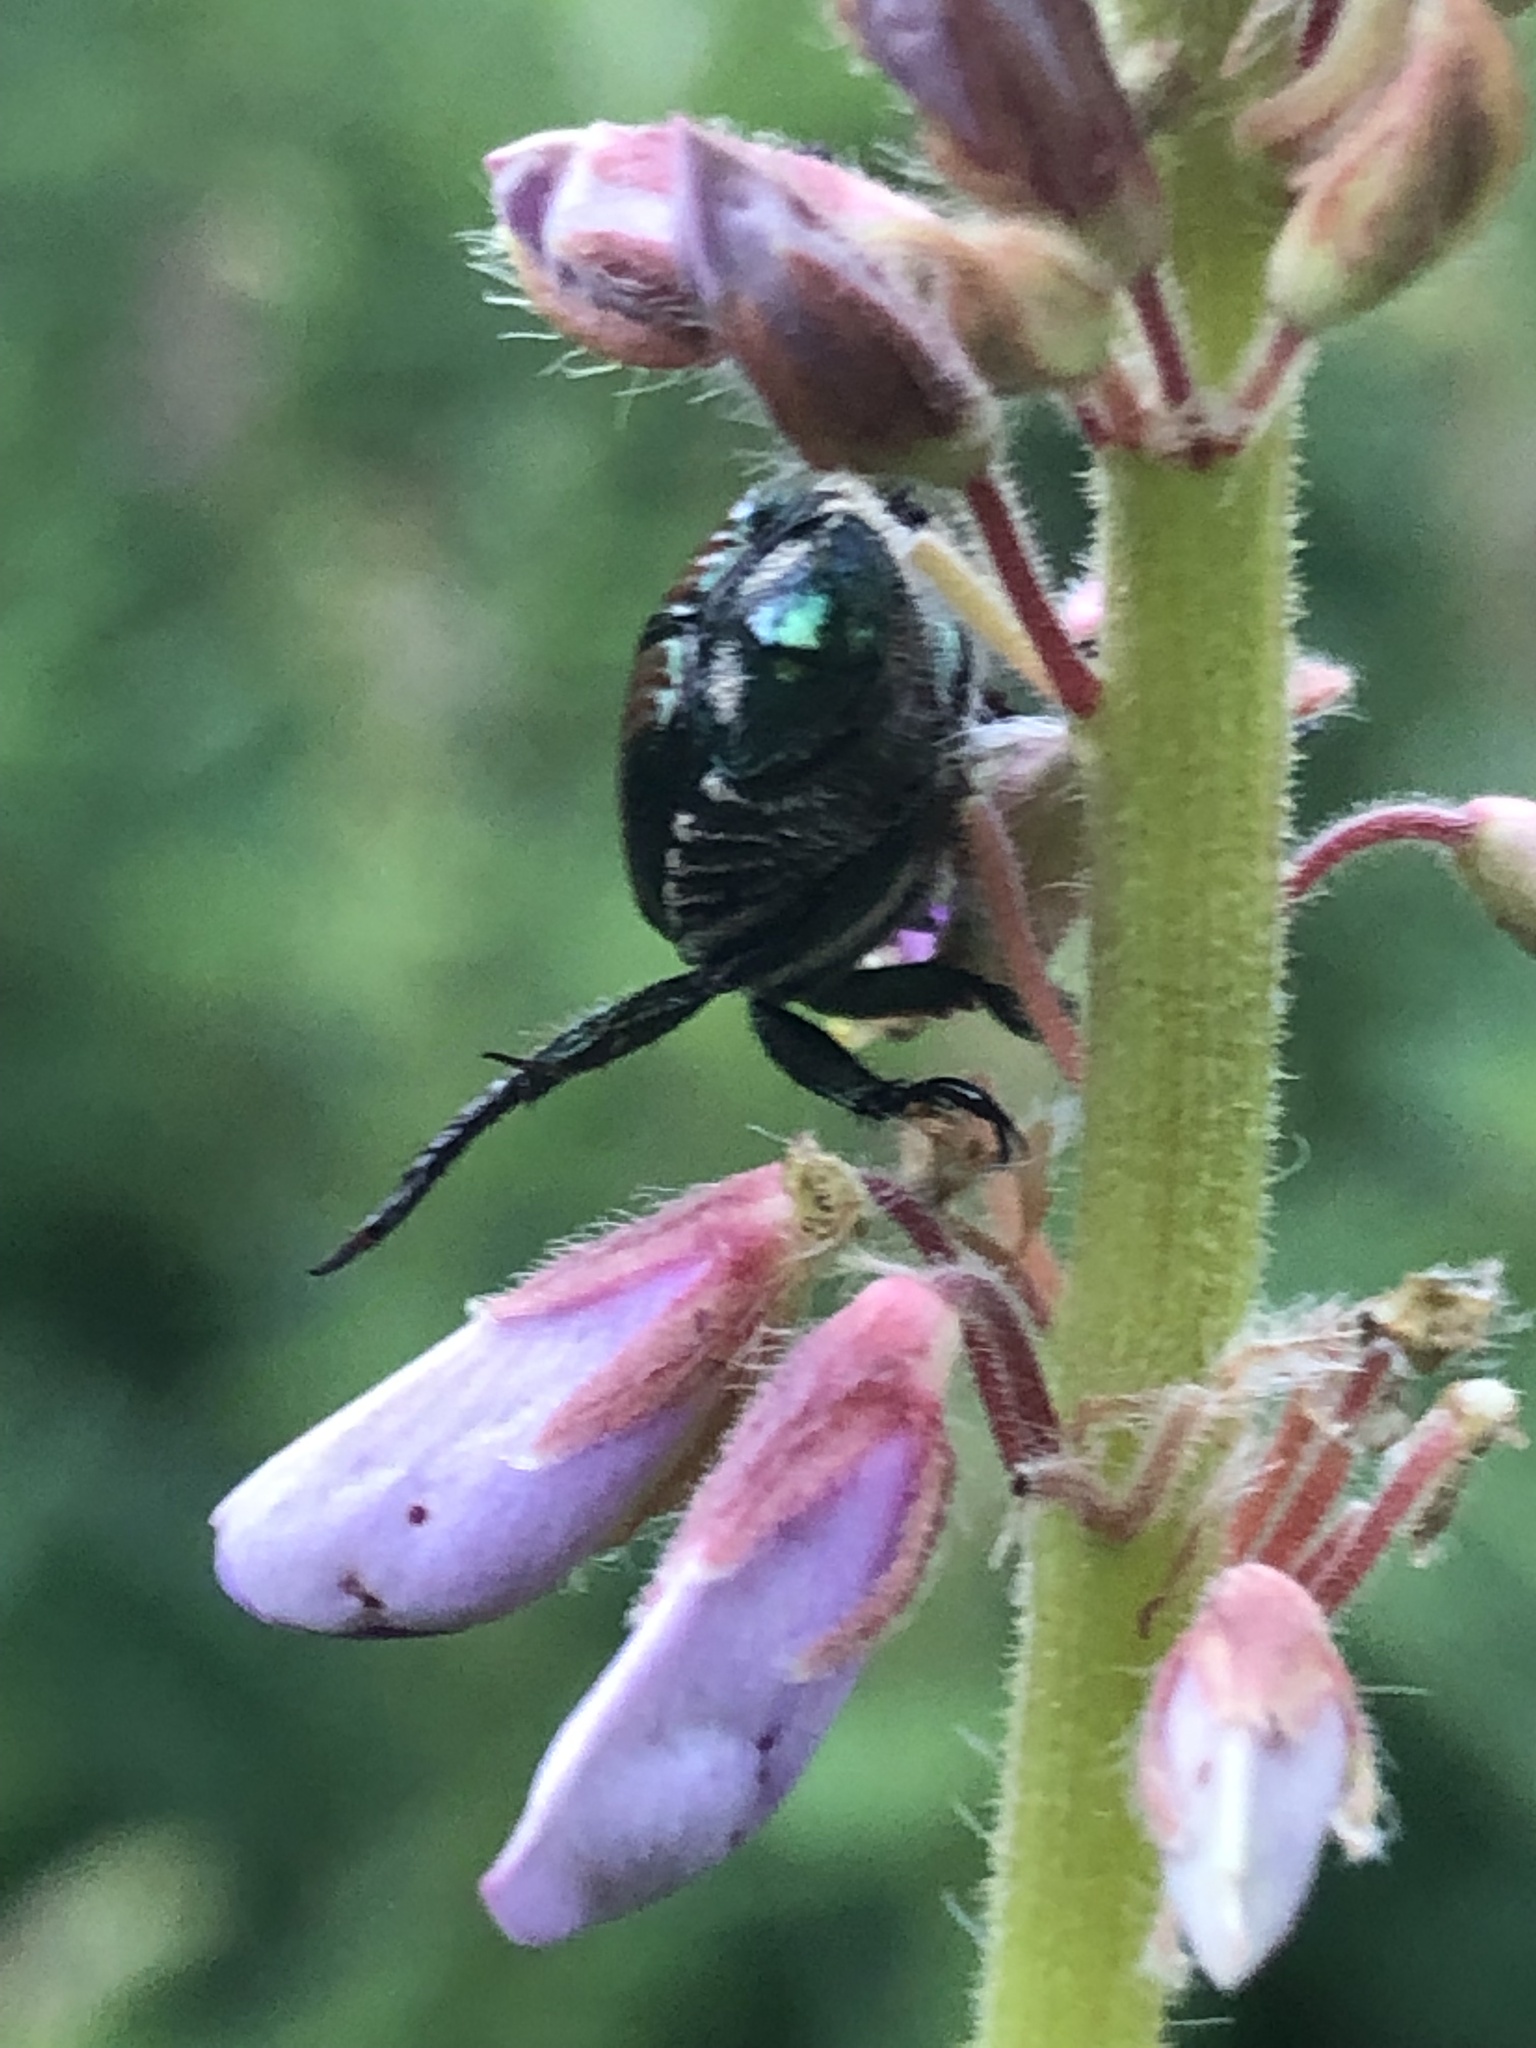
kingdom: Animalia
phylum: Arthropoda
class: Insecta
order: Coleoptera
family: Scarabaeidae
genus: Popillia
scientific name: Popillia japonica
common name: Japanese beetle
